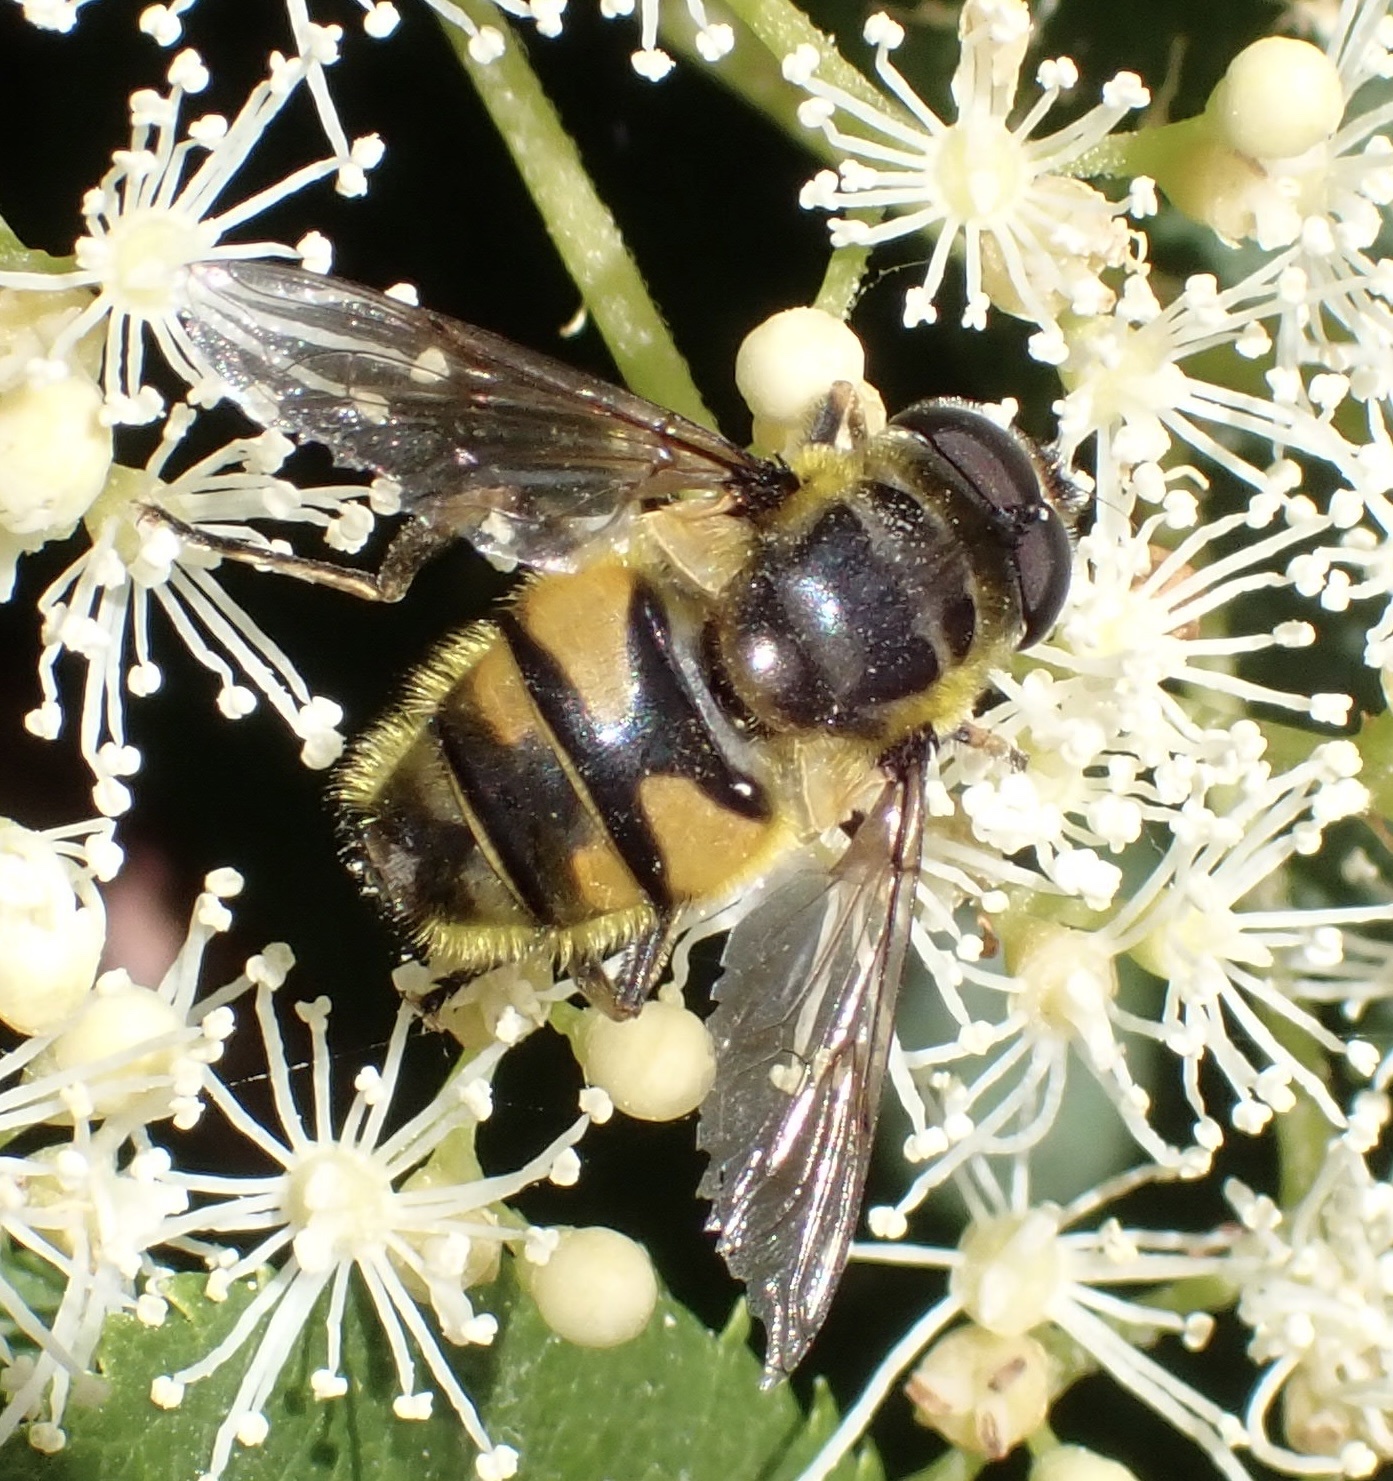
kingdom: Animalia
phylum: Arthropoda
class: Insecta
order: Diptera
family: Syrphidae
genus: Myathropa
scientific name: Myathropa florea
